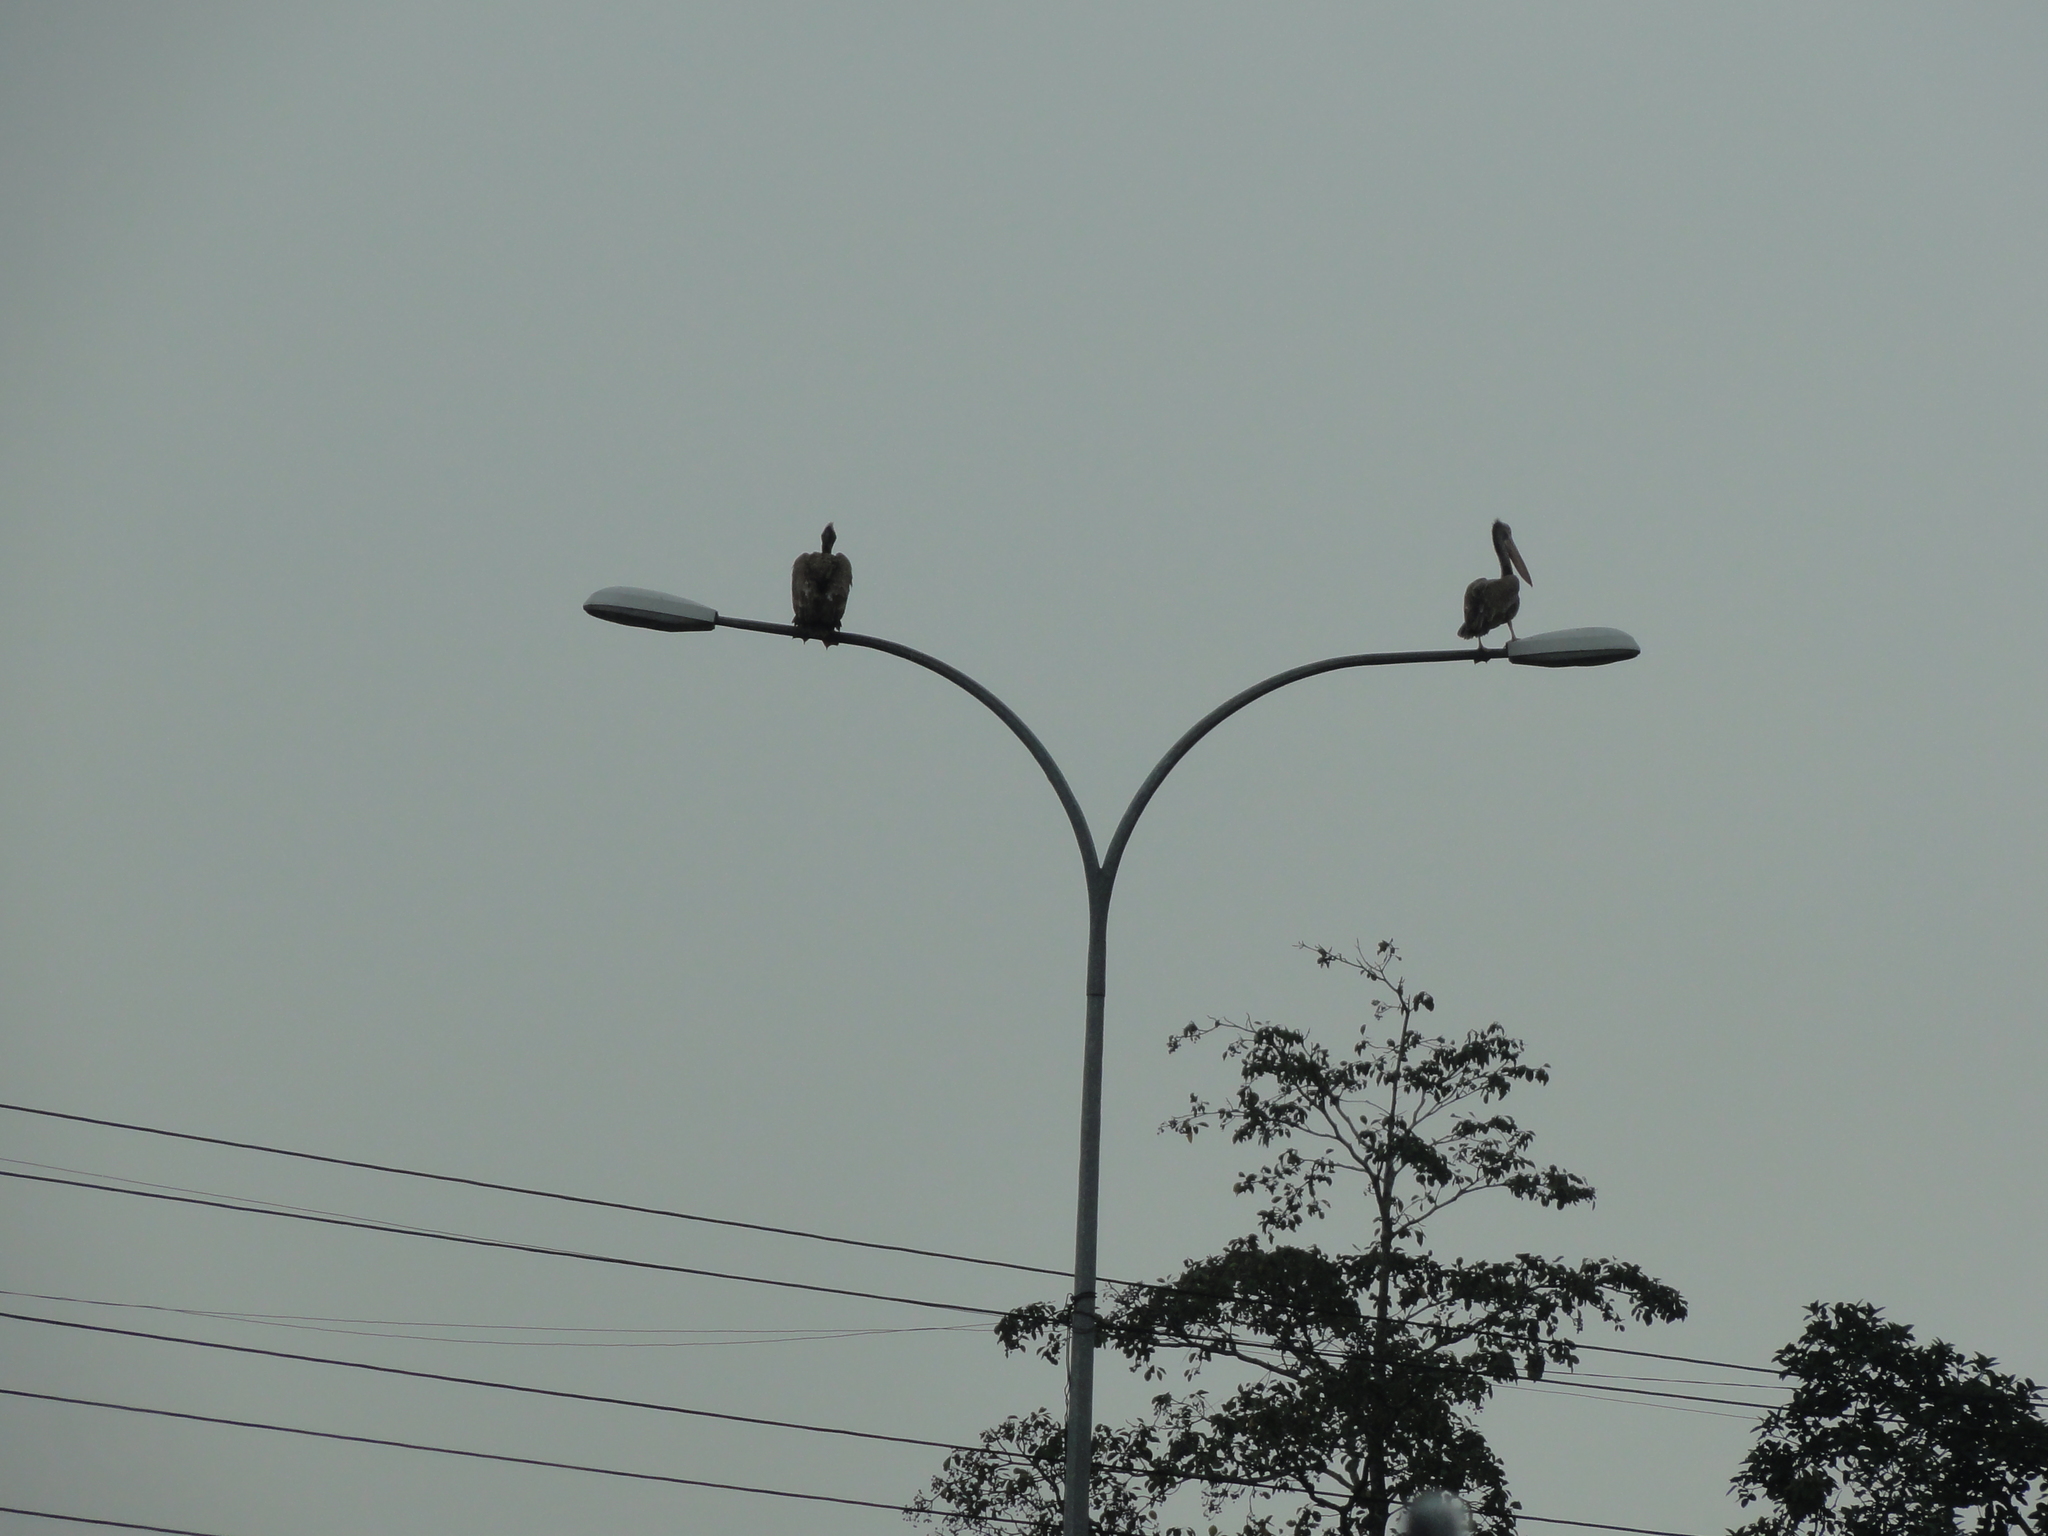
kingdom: Animalia
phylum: Chordata
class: Aves
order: Pelecaniformes
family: Pelecanidae
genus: Pelecanus
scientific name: Pelecanus philippensis
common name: Spot-billed pelican
